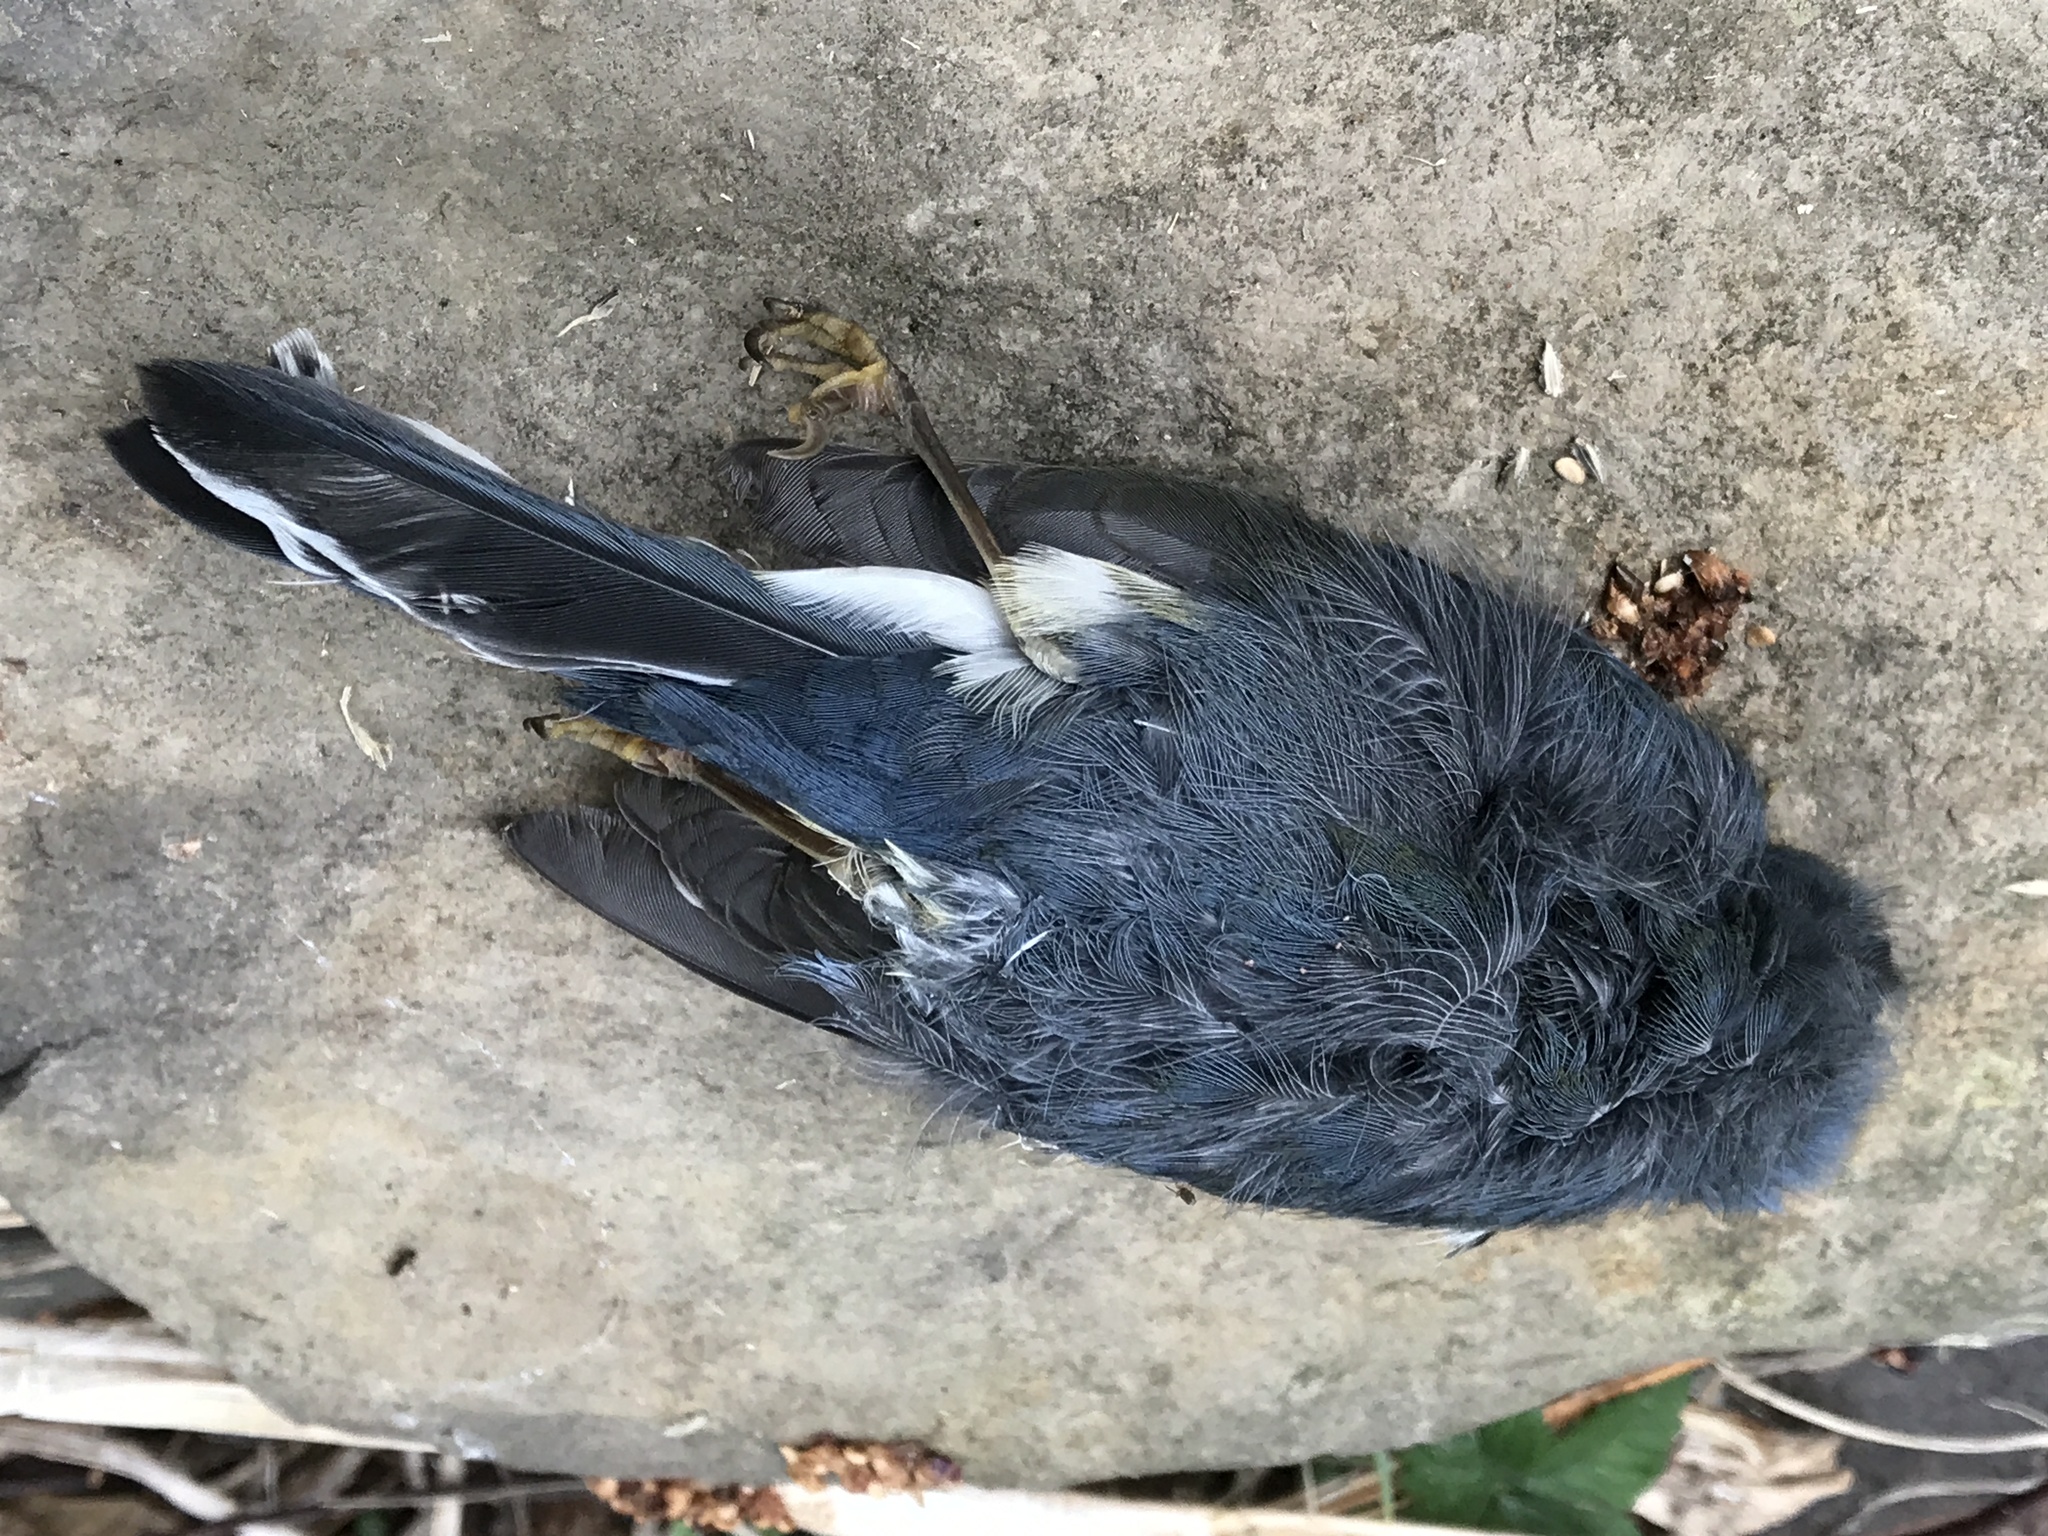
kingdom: Animalia
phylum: Chordata
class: Aves
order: Passeriformes
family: Parulidae
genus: Setophaga
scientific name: Setophaga caerulescens
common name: Black-throated blue warbler
